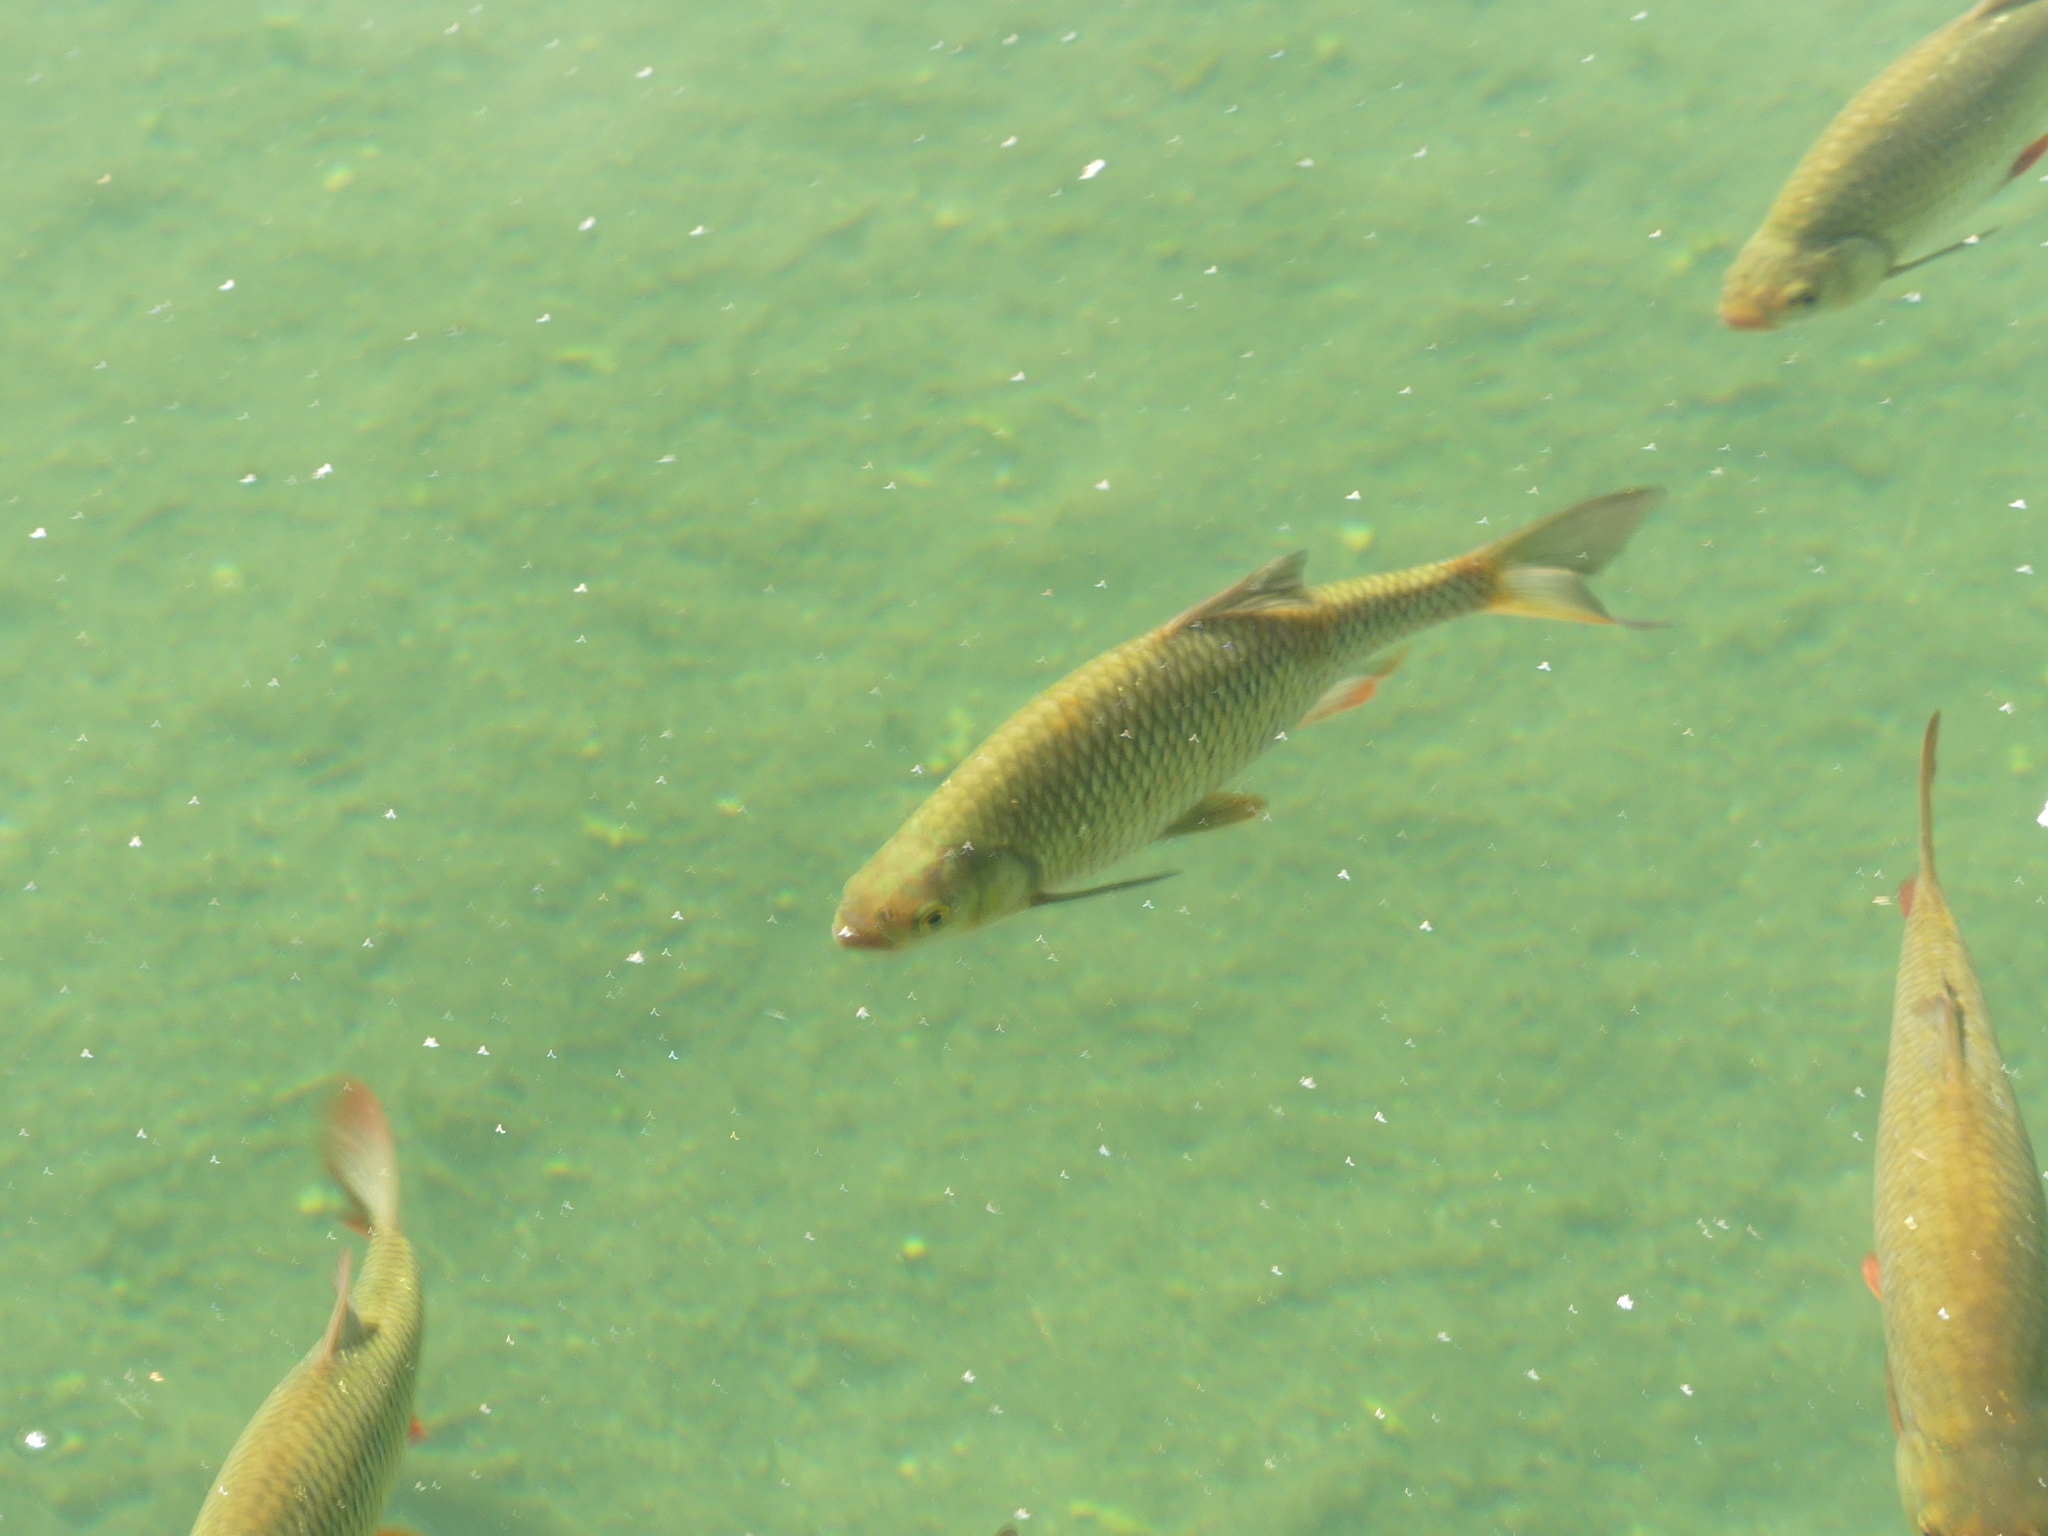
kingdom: Animalia
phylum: Chordata
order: Cypriniformes
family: Cyprinidae
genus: Squalius
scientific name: Squalius cephalus
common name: Chub
